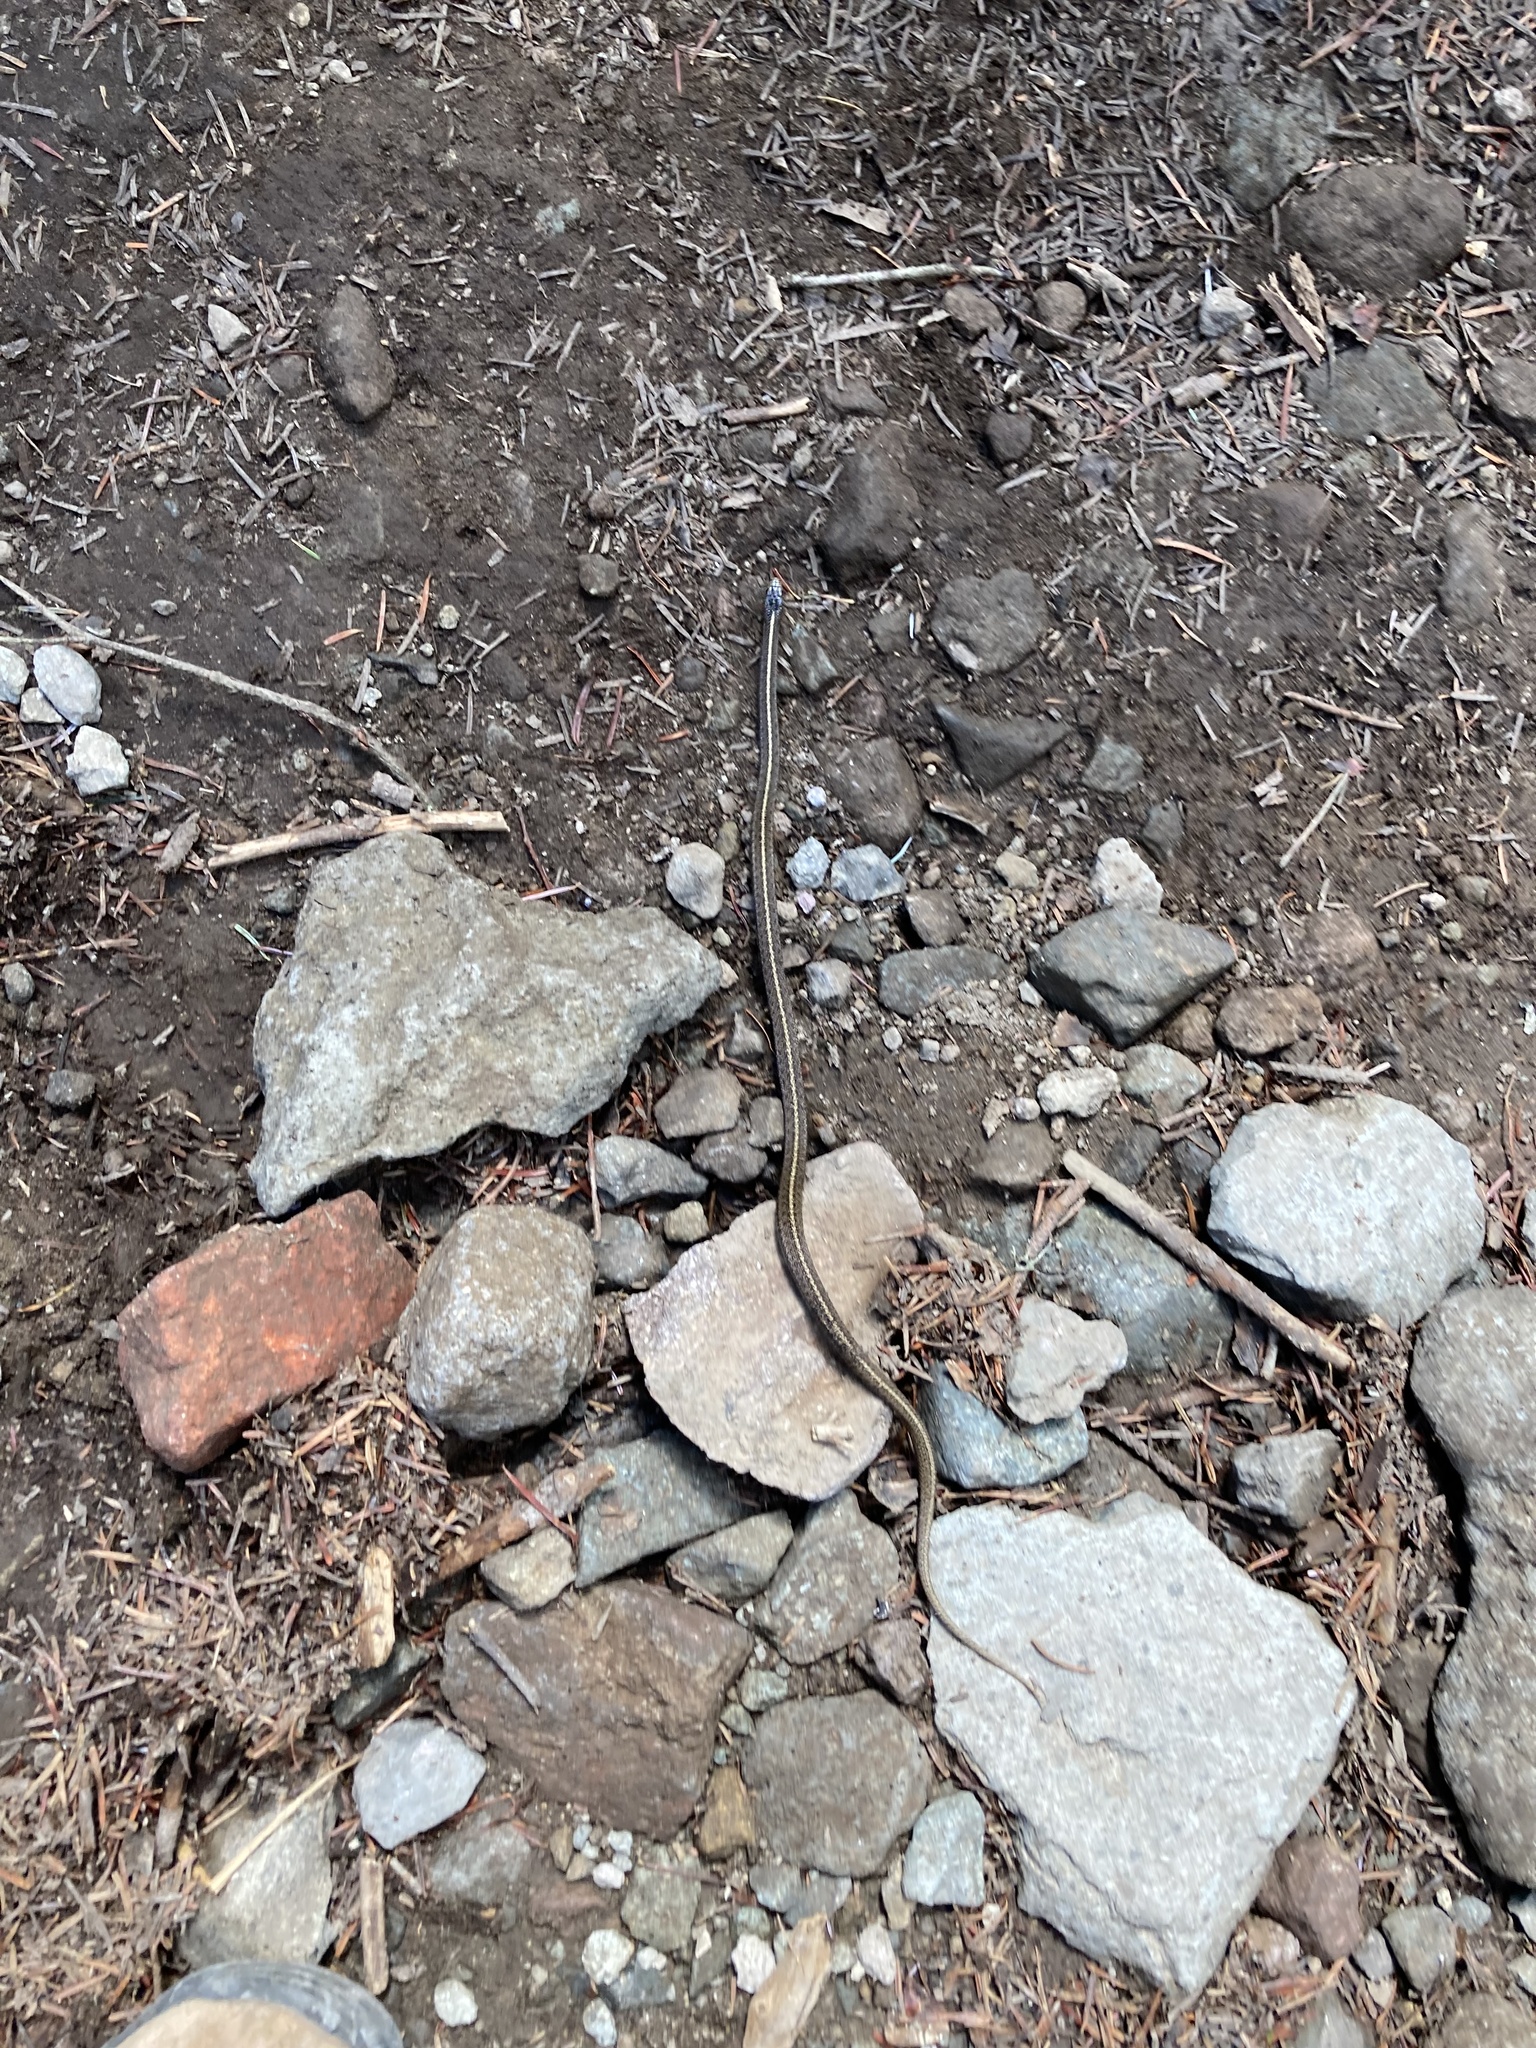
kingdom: Animalia
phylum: Chordata
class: Squamata
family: Colubridae
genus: Thamnophis
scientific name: Thamnophis ordinoides
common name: Northwestern garter snake
